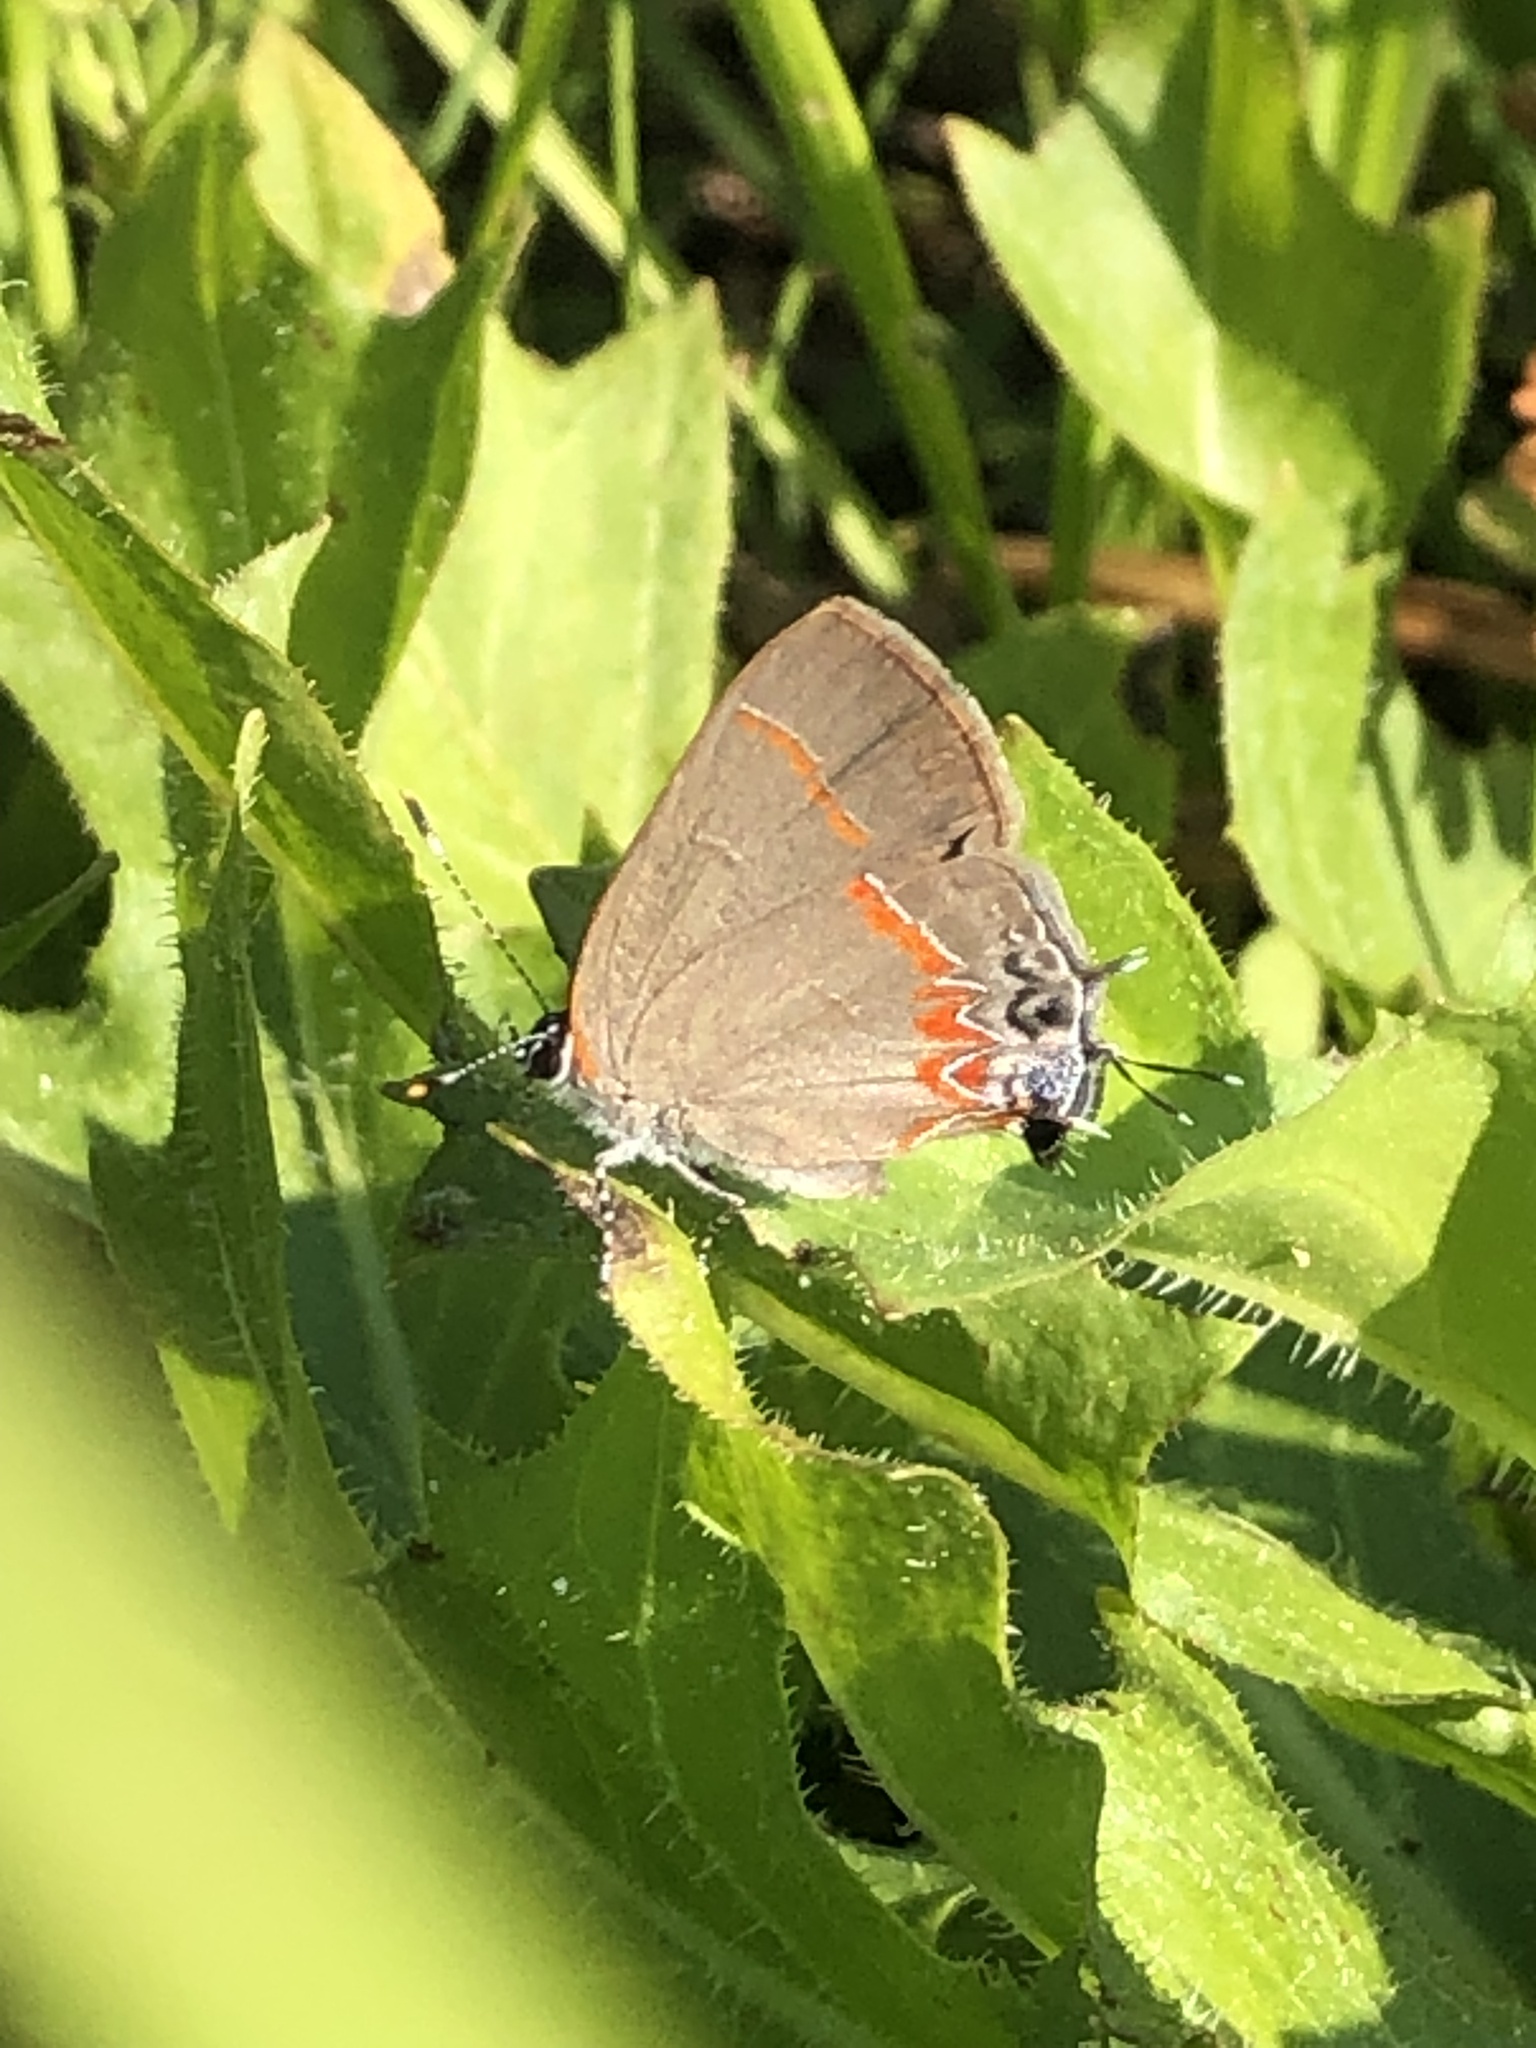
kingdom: Animalia
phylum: Arthropoda
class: Insecta
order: Lepidoptera
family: Lycaenidae
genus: Calycopis
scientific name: Calycopis cecrops
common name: Red-banded hairstreak
